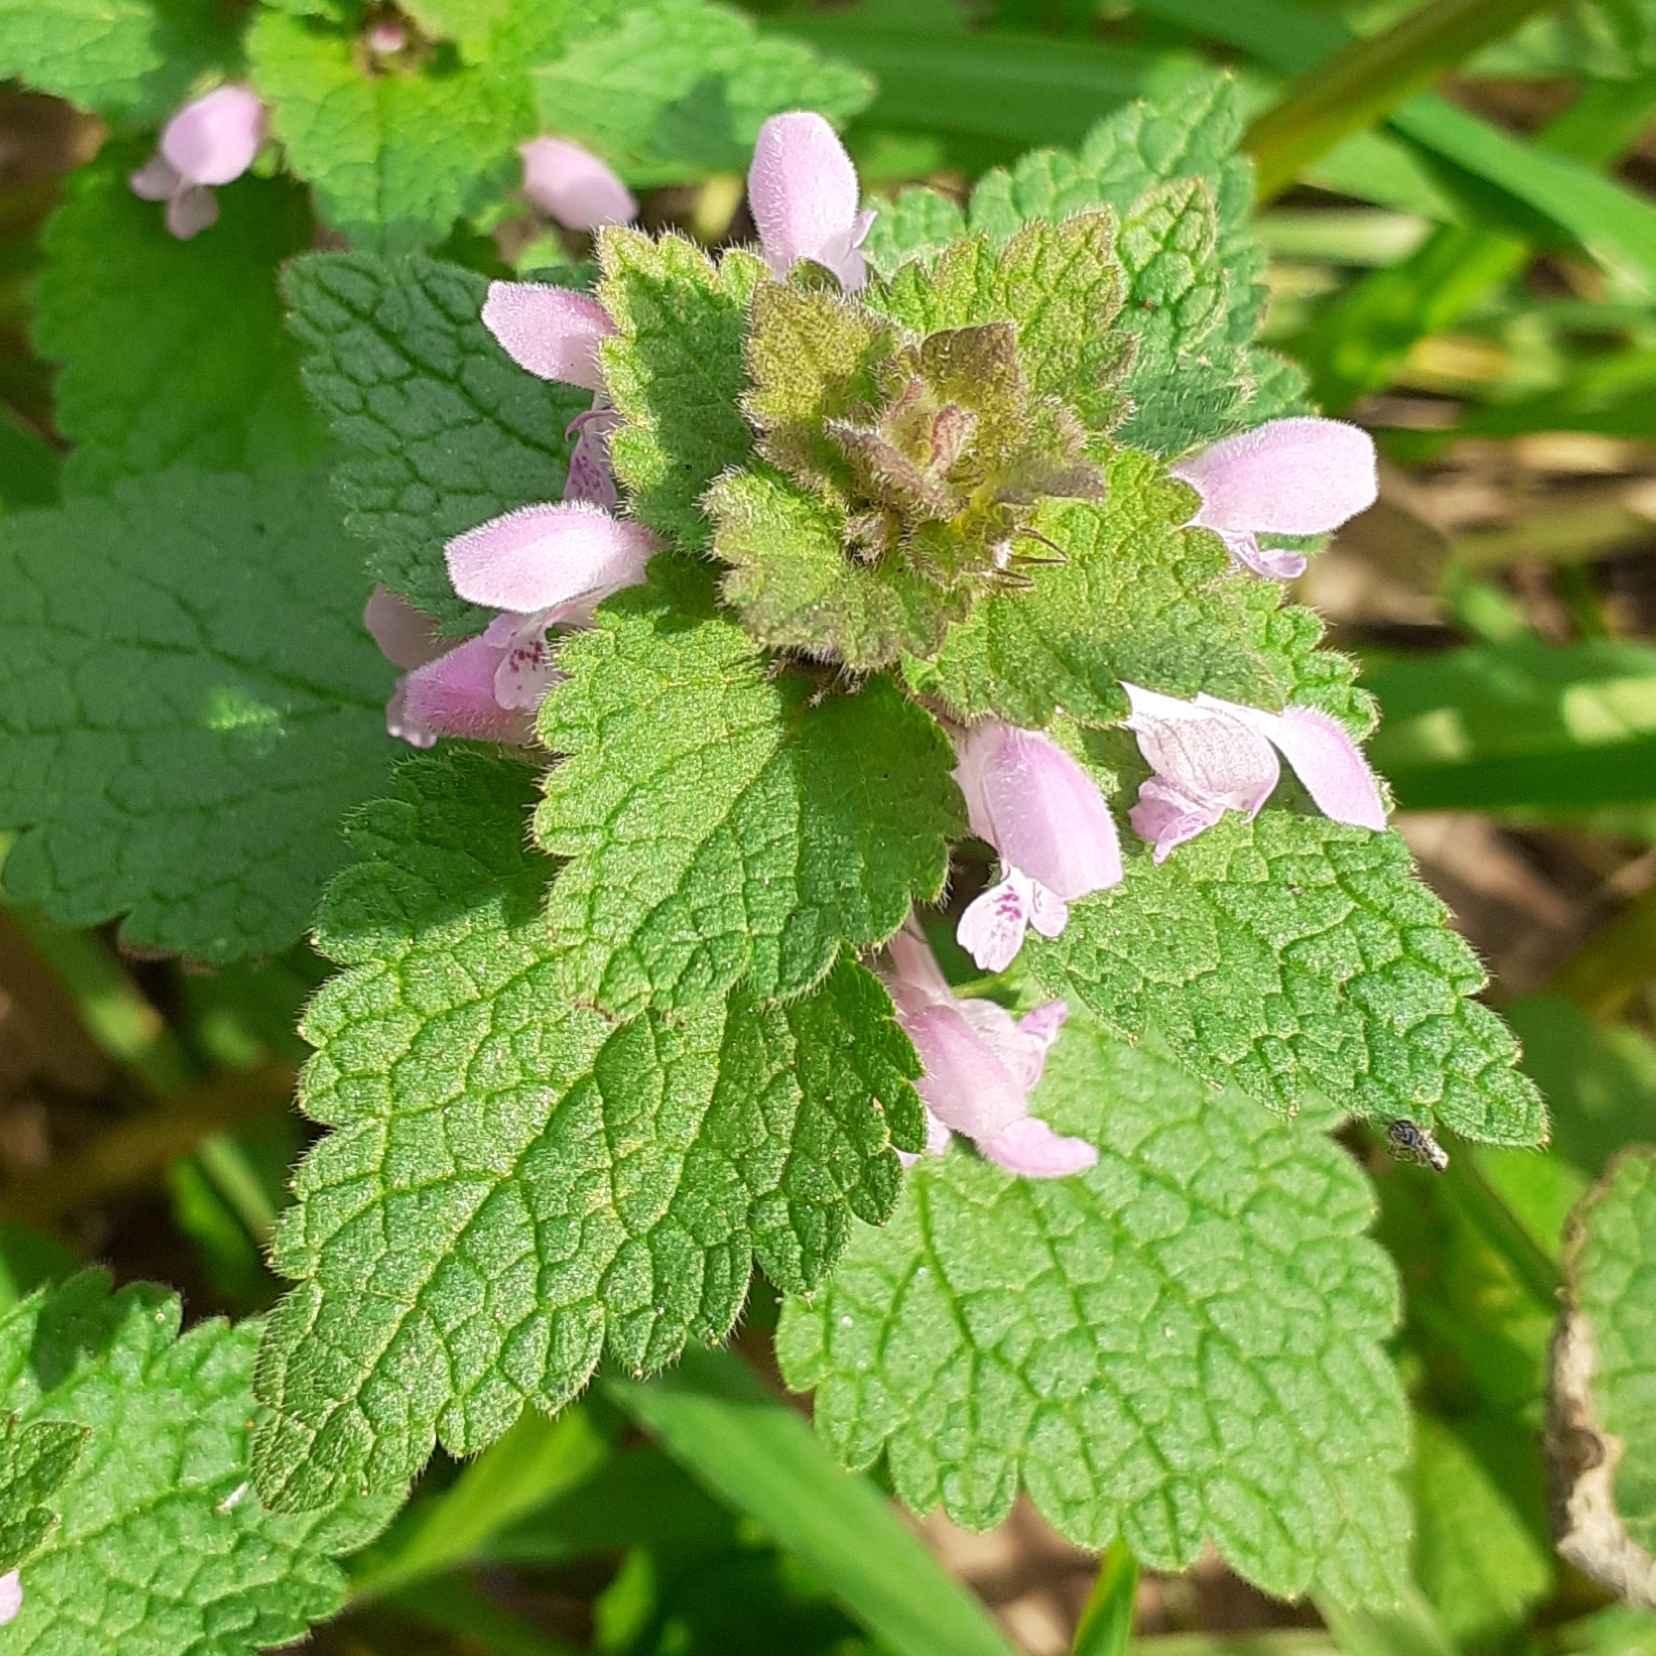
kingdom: Plantae
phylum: Tracheophyta
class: Magnoliopsida
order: Lamiales
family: Lamiaceae
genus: Lamium
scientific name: Lamium purpureum
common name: Red dead-nettle
